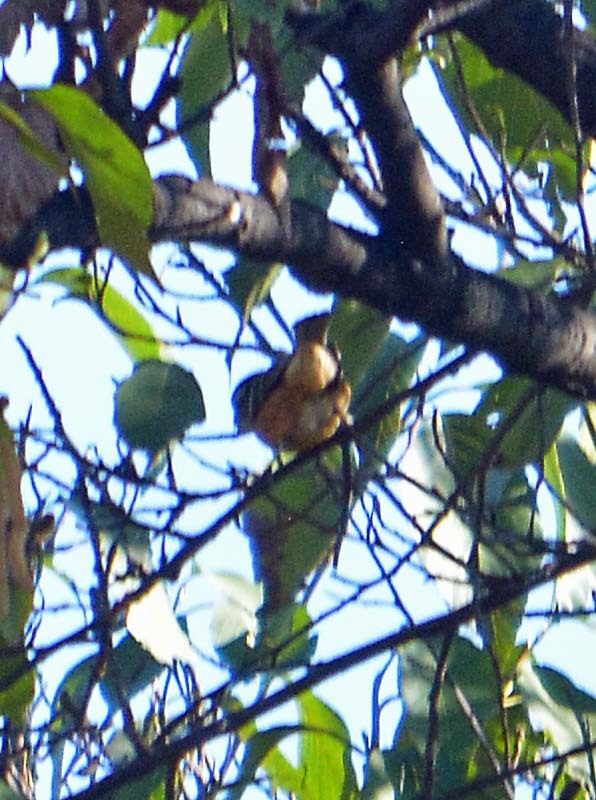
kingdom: Animalia
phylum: Chordata
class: Aves
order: Passeriformes
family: Cardinalidae
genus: Pheucticus
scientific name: Pheucticus melanocephalus
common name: Black-headed grosbeak
